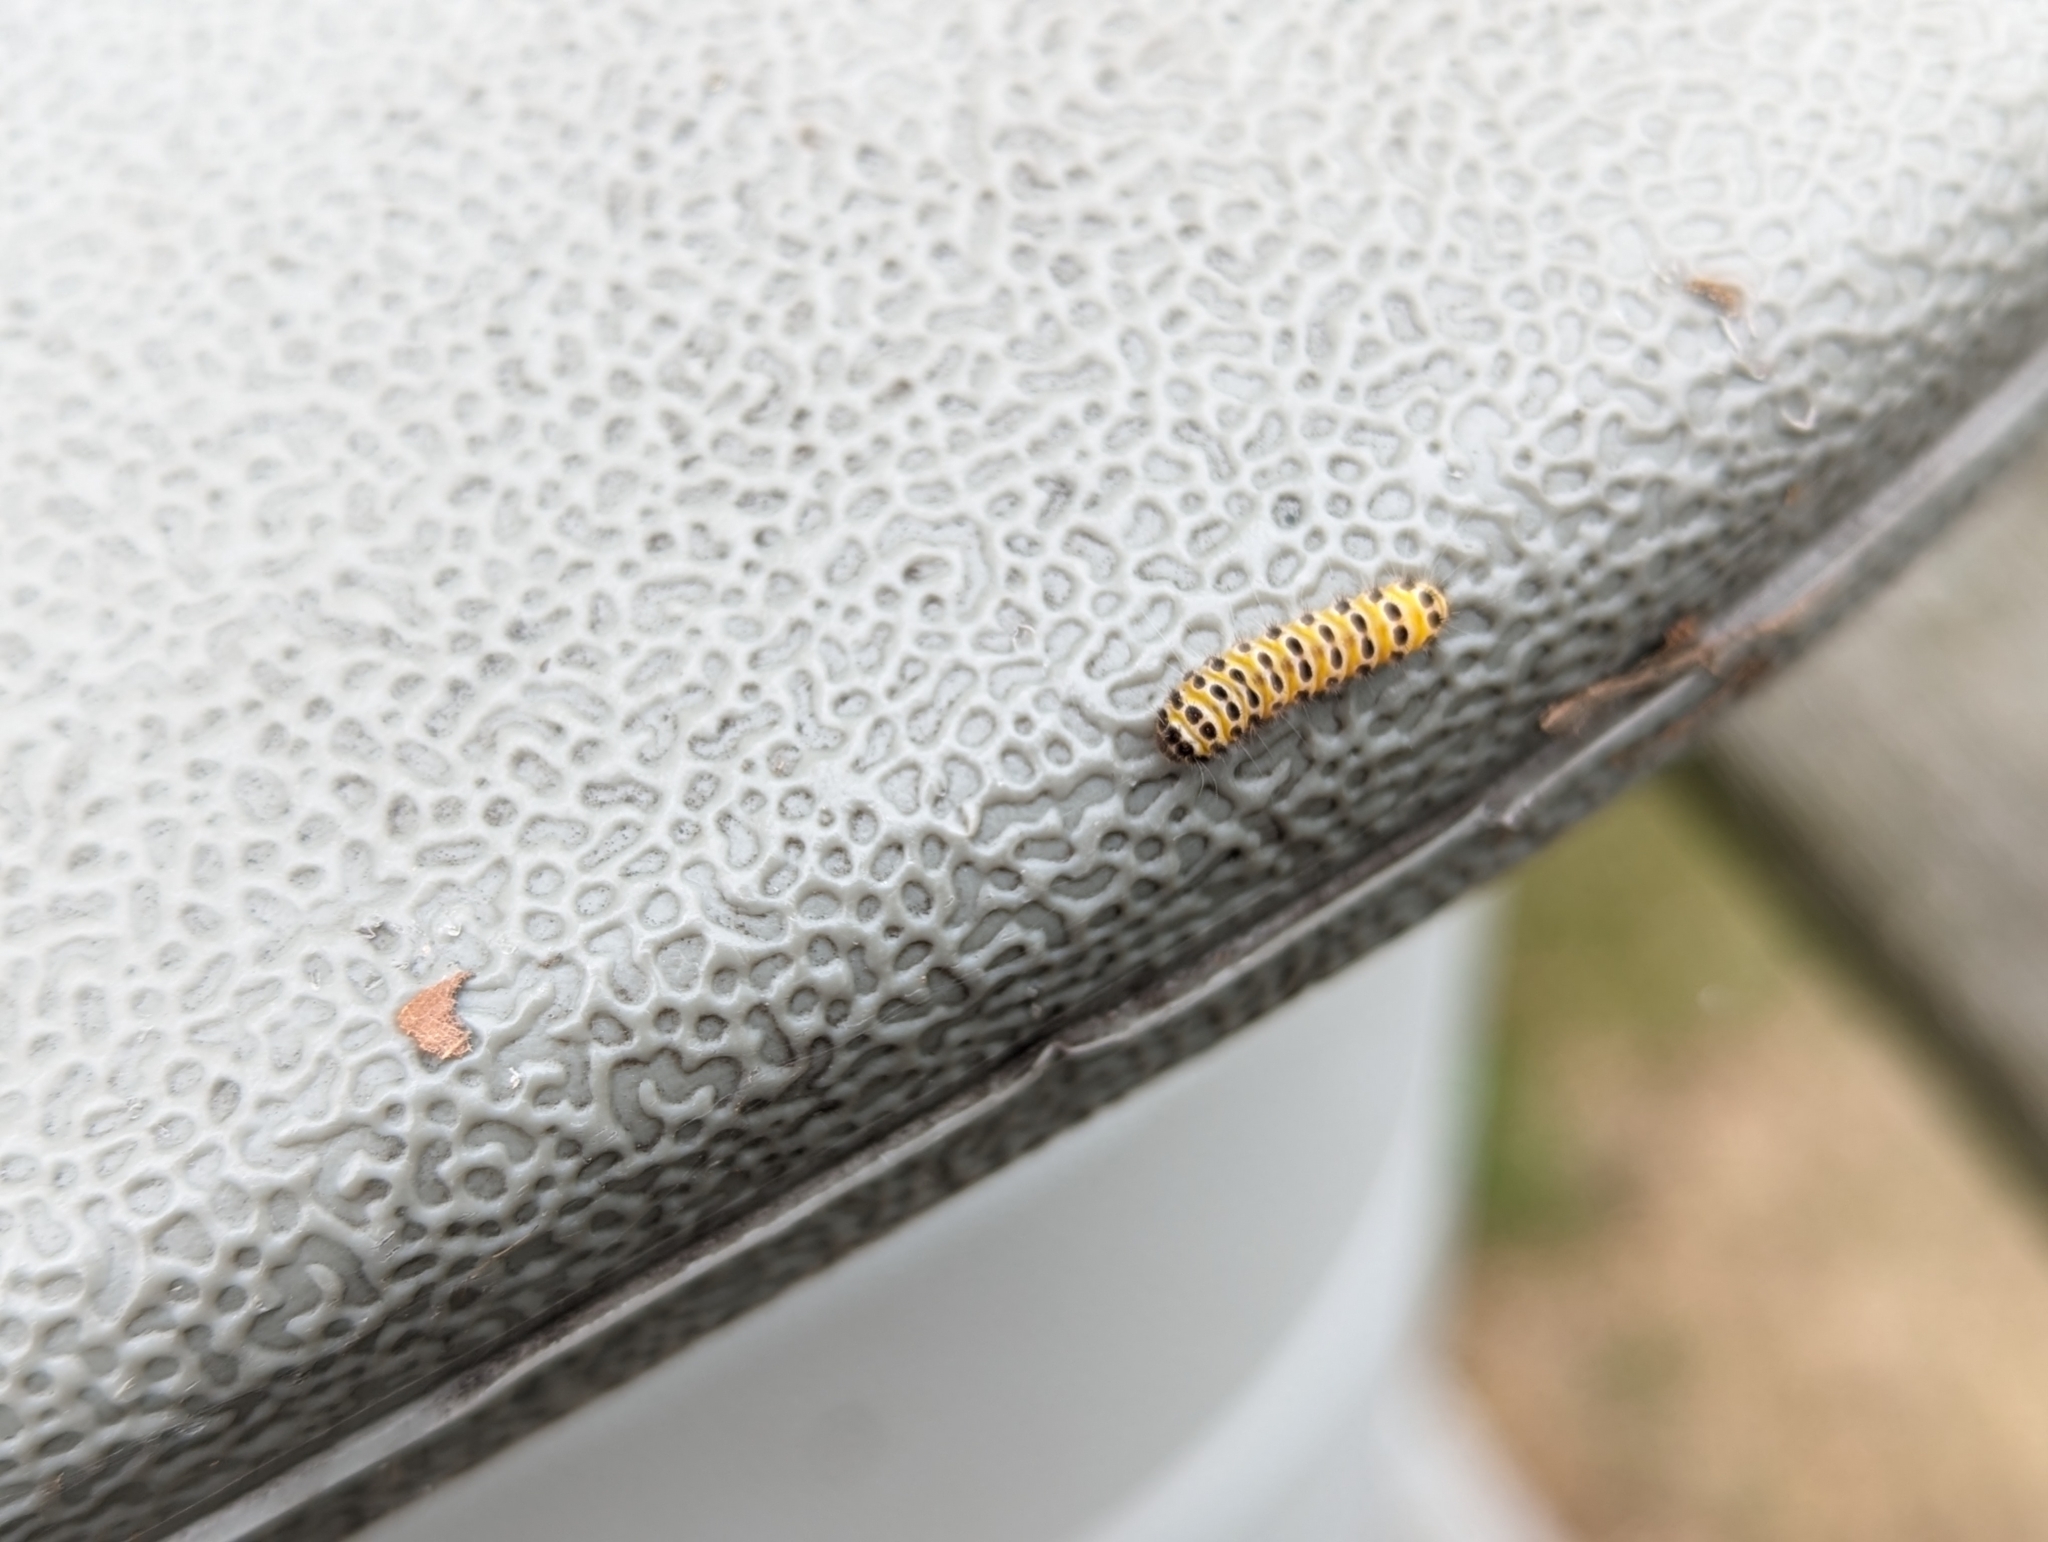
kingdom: Animalia
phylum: Arthropoda
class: Insecta
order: Lepidoptera
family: Zygaenidae
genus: Harrisina
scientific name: Harrisina americana
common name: Grapeleaf skeletonizer moth
